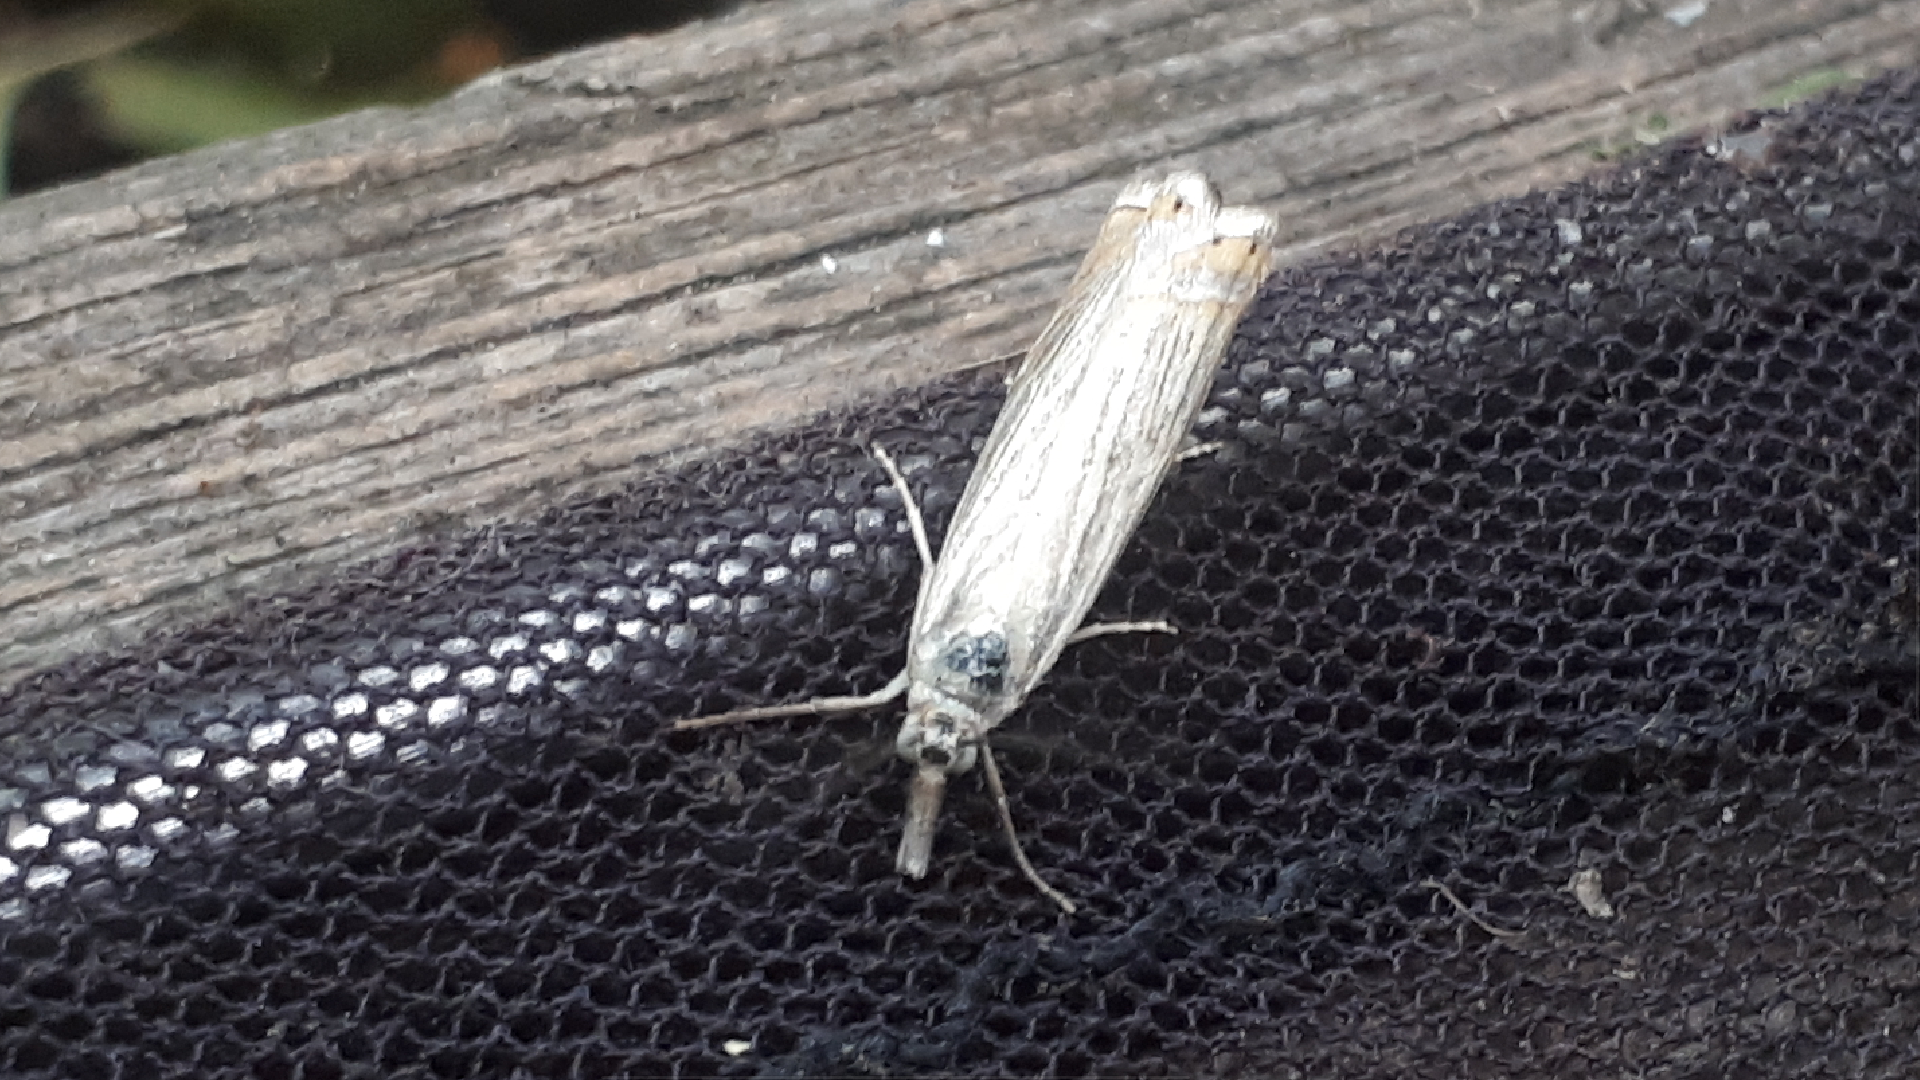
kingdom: Animalia
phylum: Arthropoda
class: Insecta
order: Lepidoptera
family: Crambidae
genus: Chrysoteuchia
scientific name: Chrysoteuchia culmella
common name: Garden grass-veneer
